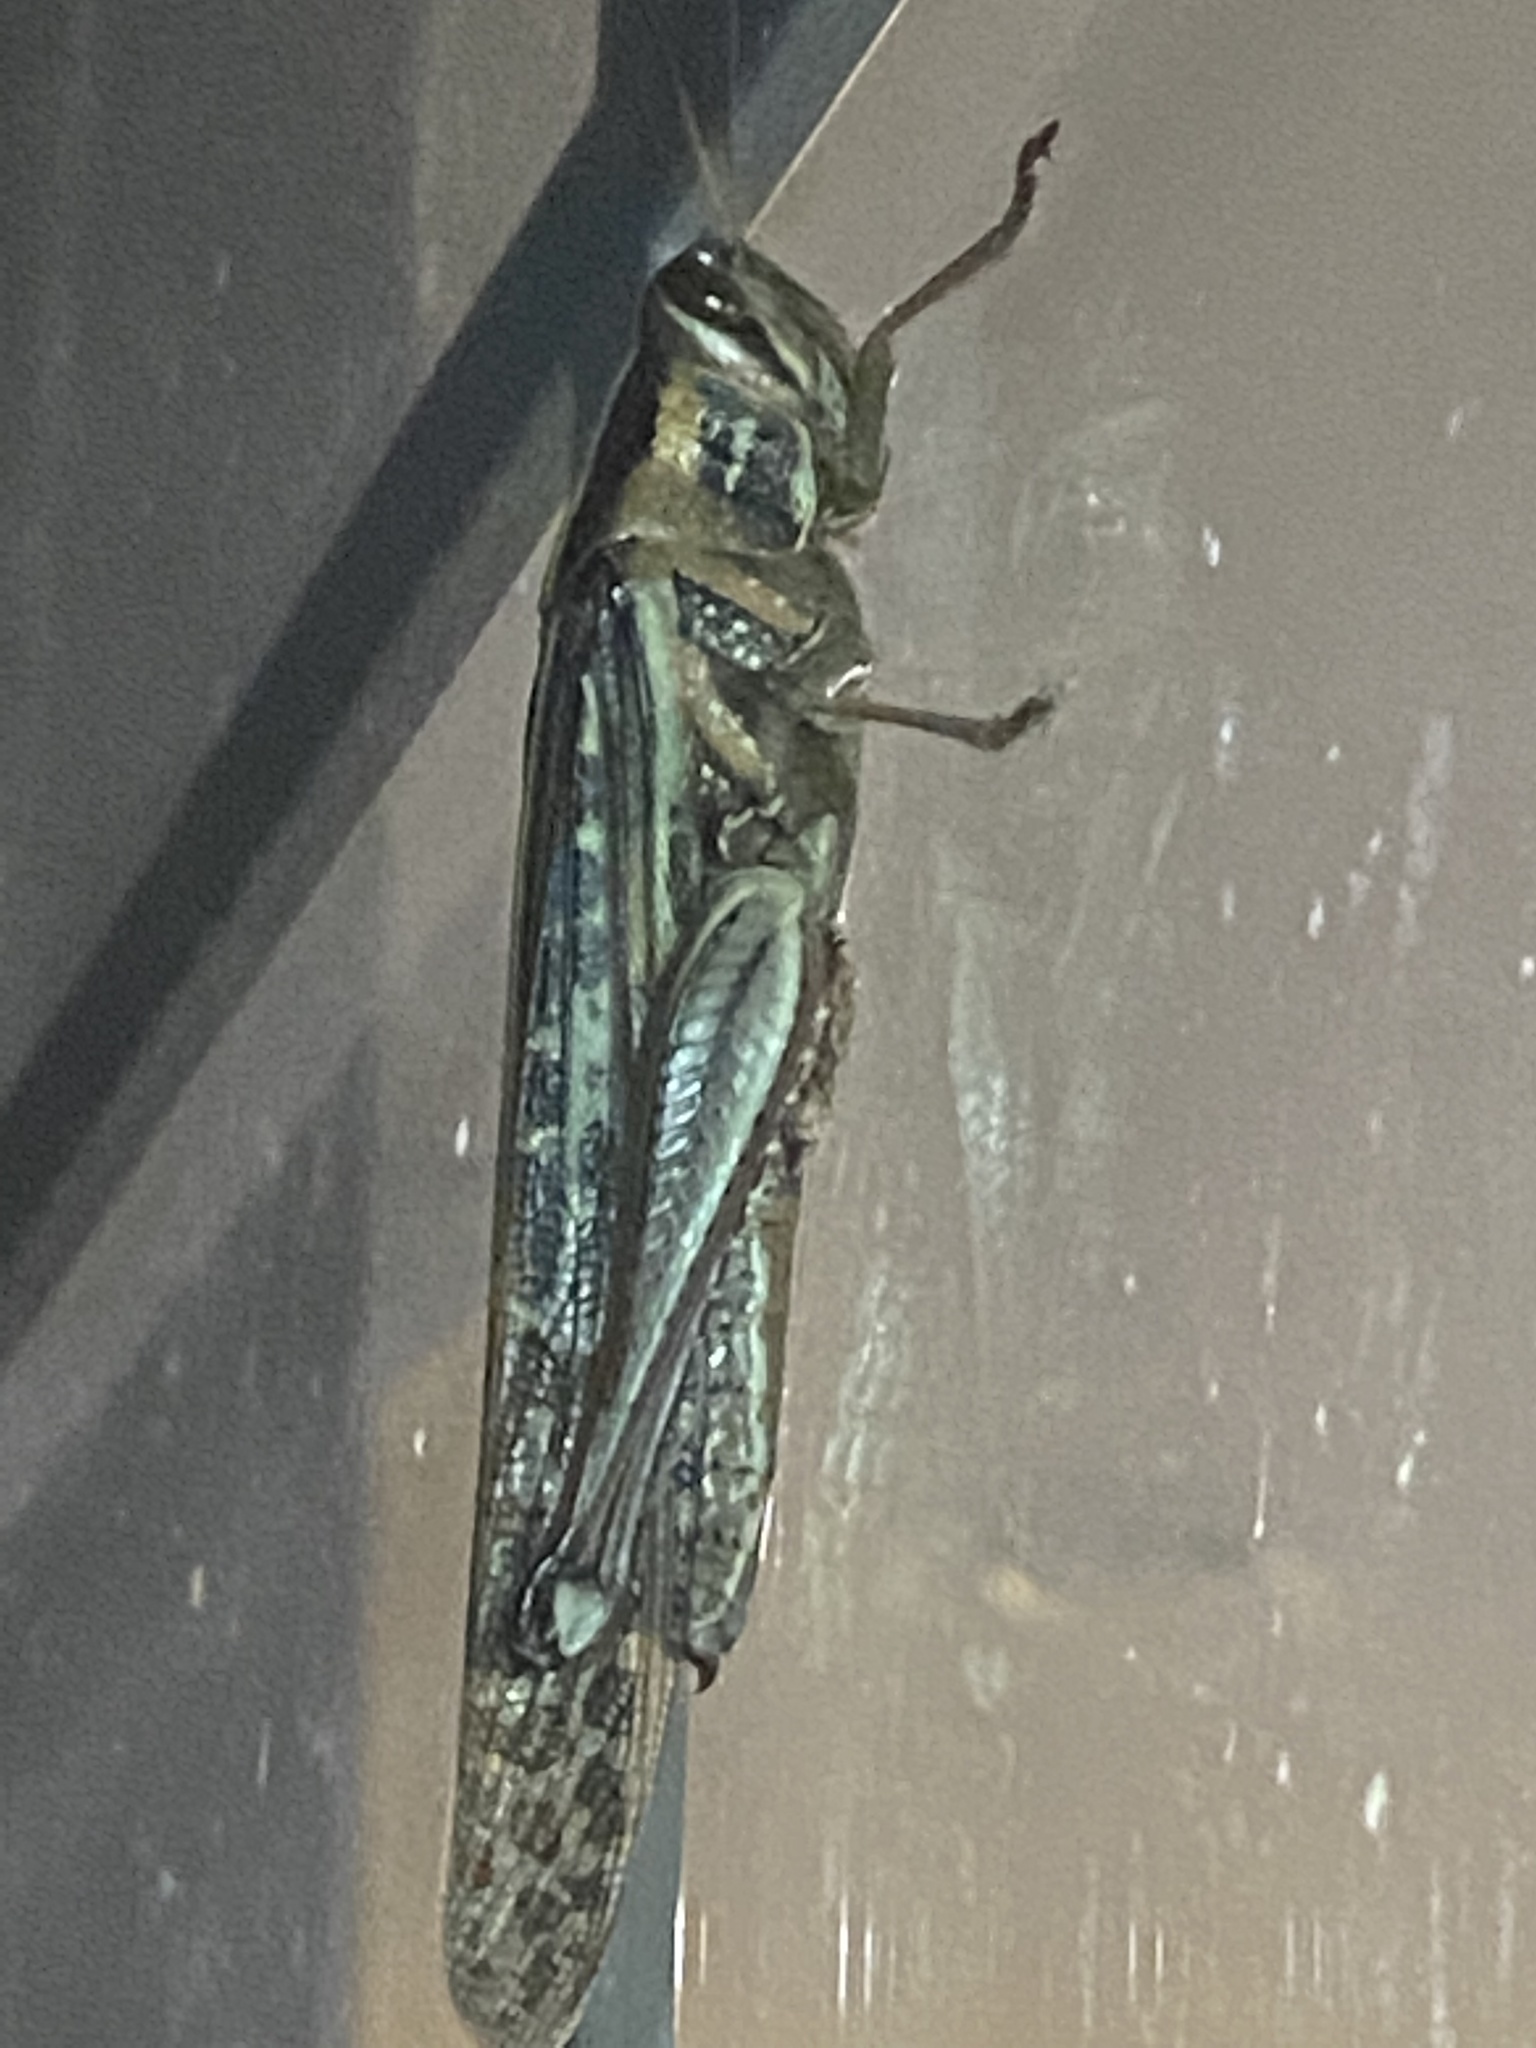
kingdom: Animalia
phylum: Arthropoda
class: Insecta
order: Orthoptera
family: Acrididae
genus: Schistocerca
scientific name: Schistocerca americana
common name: American bird locust
